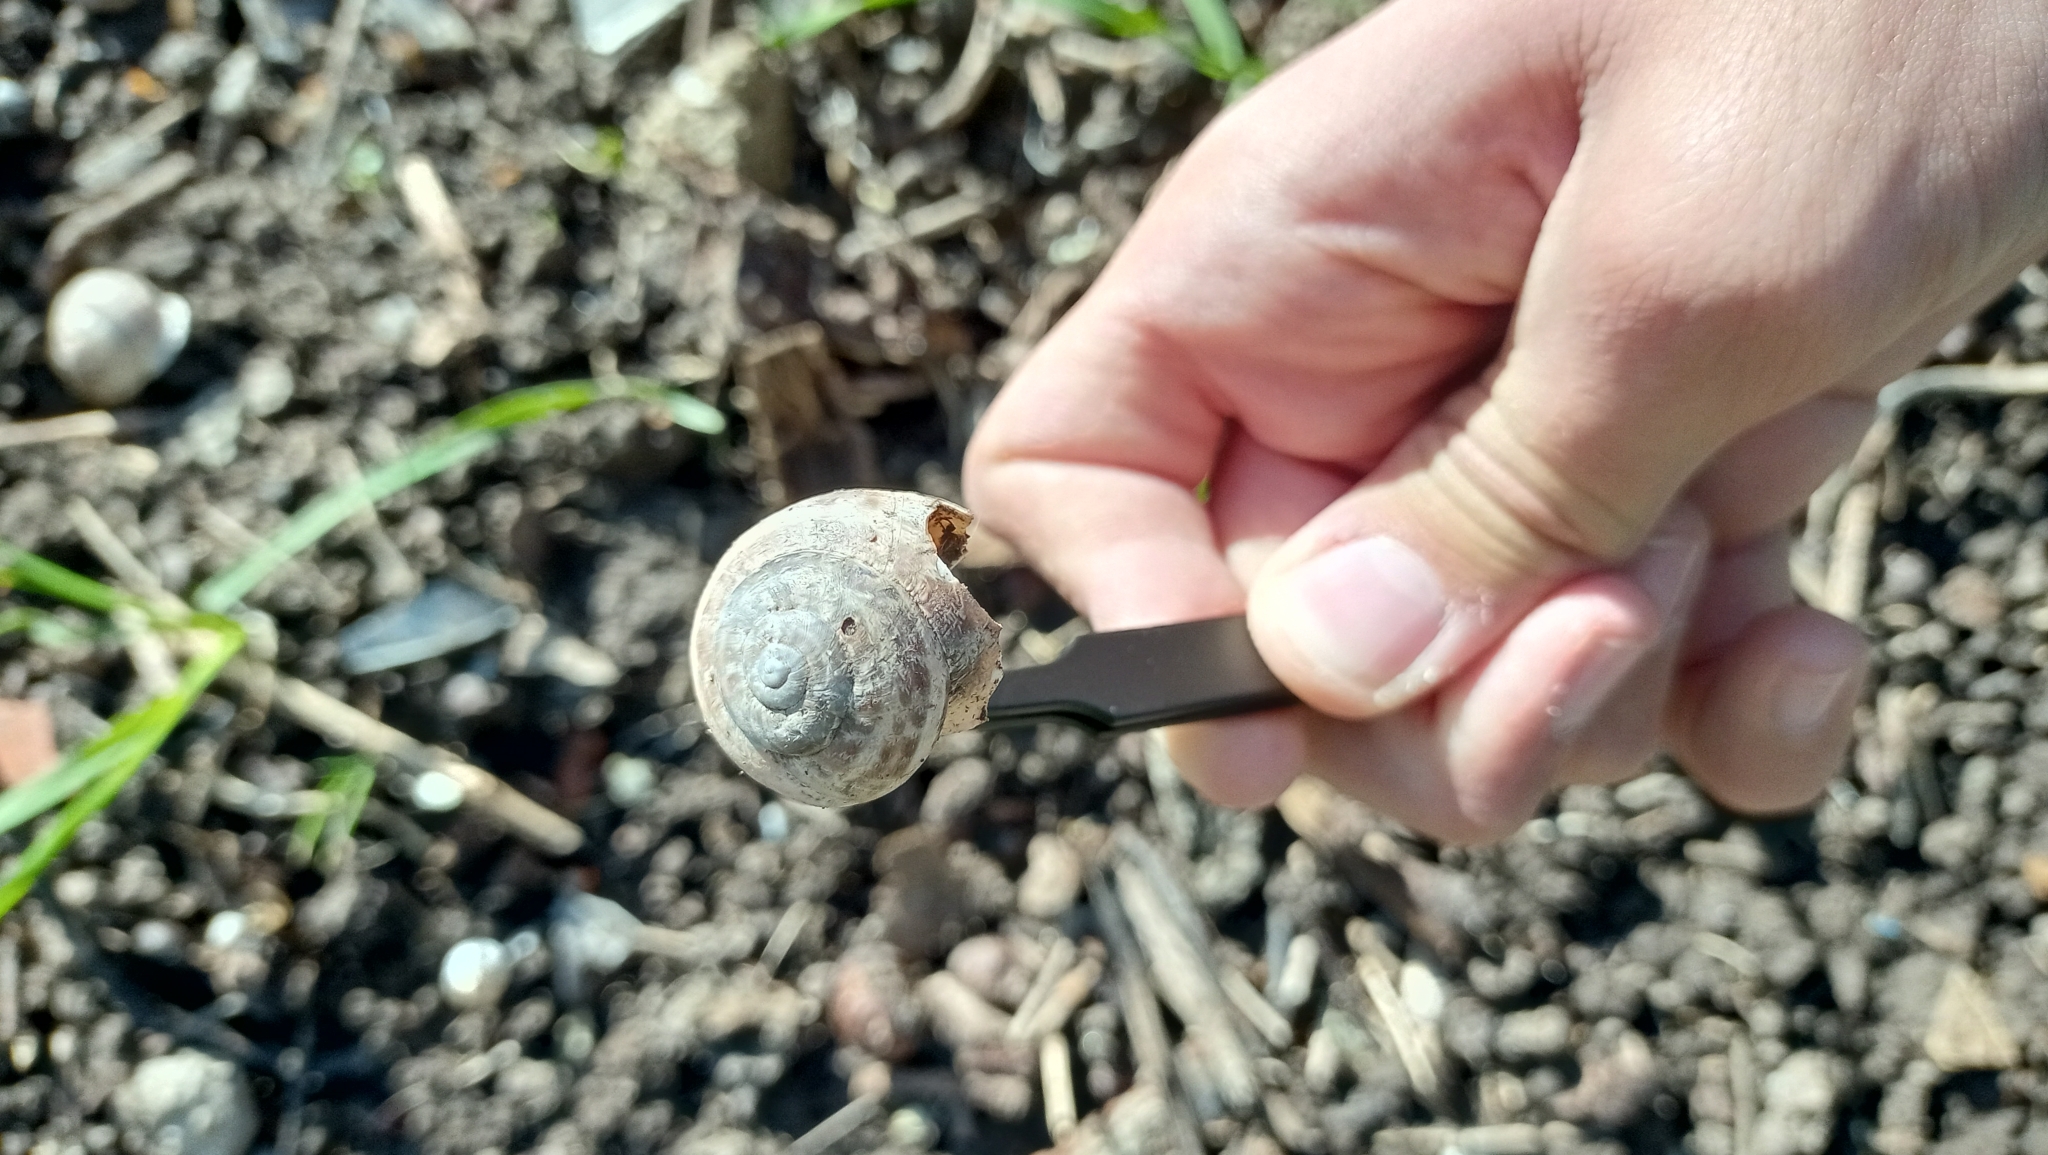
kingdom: Animalia
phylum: Mollusca
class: Gastropoda
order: Stylommatophora
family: Helicidae
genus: Eobania
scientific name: Eobania vermiculata
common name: Chocolateband snail
